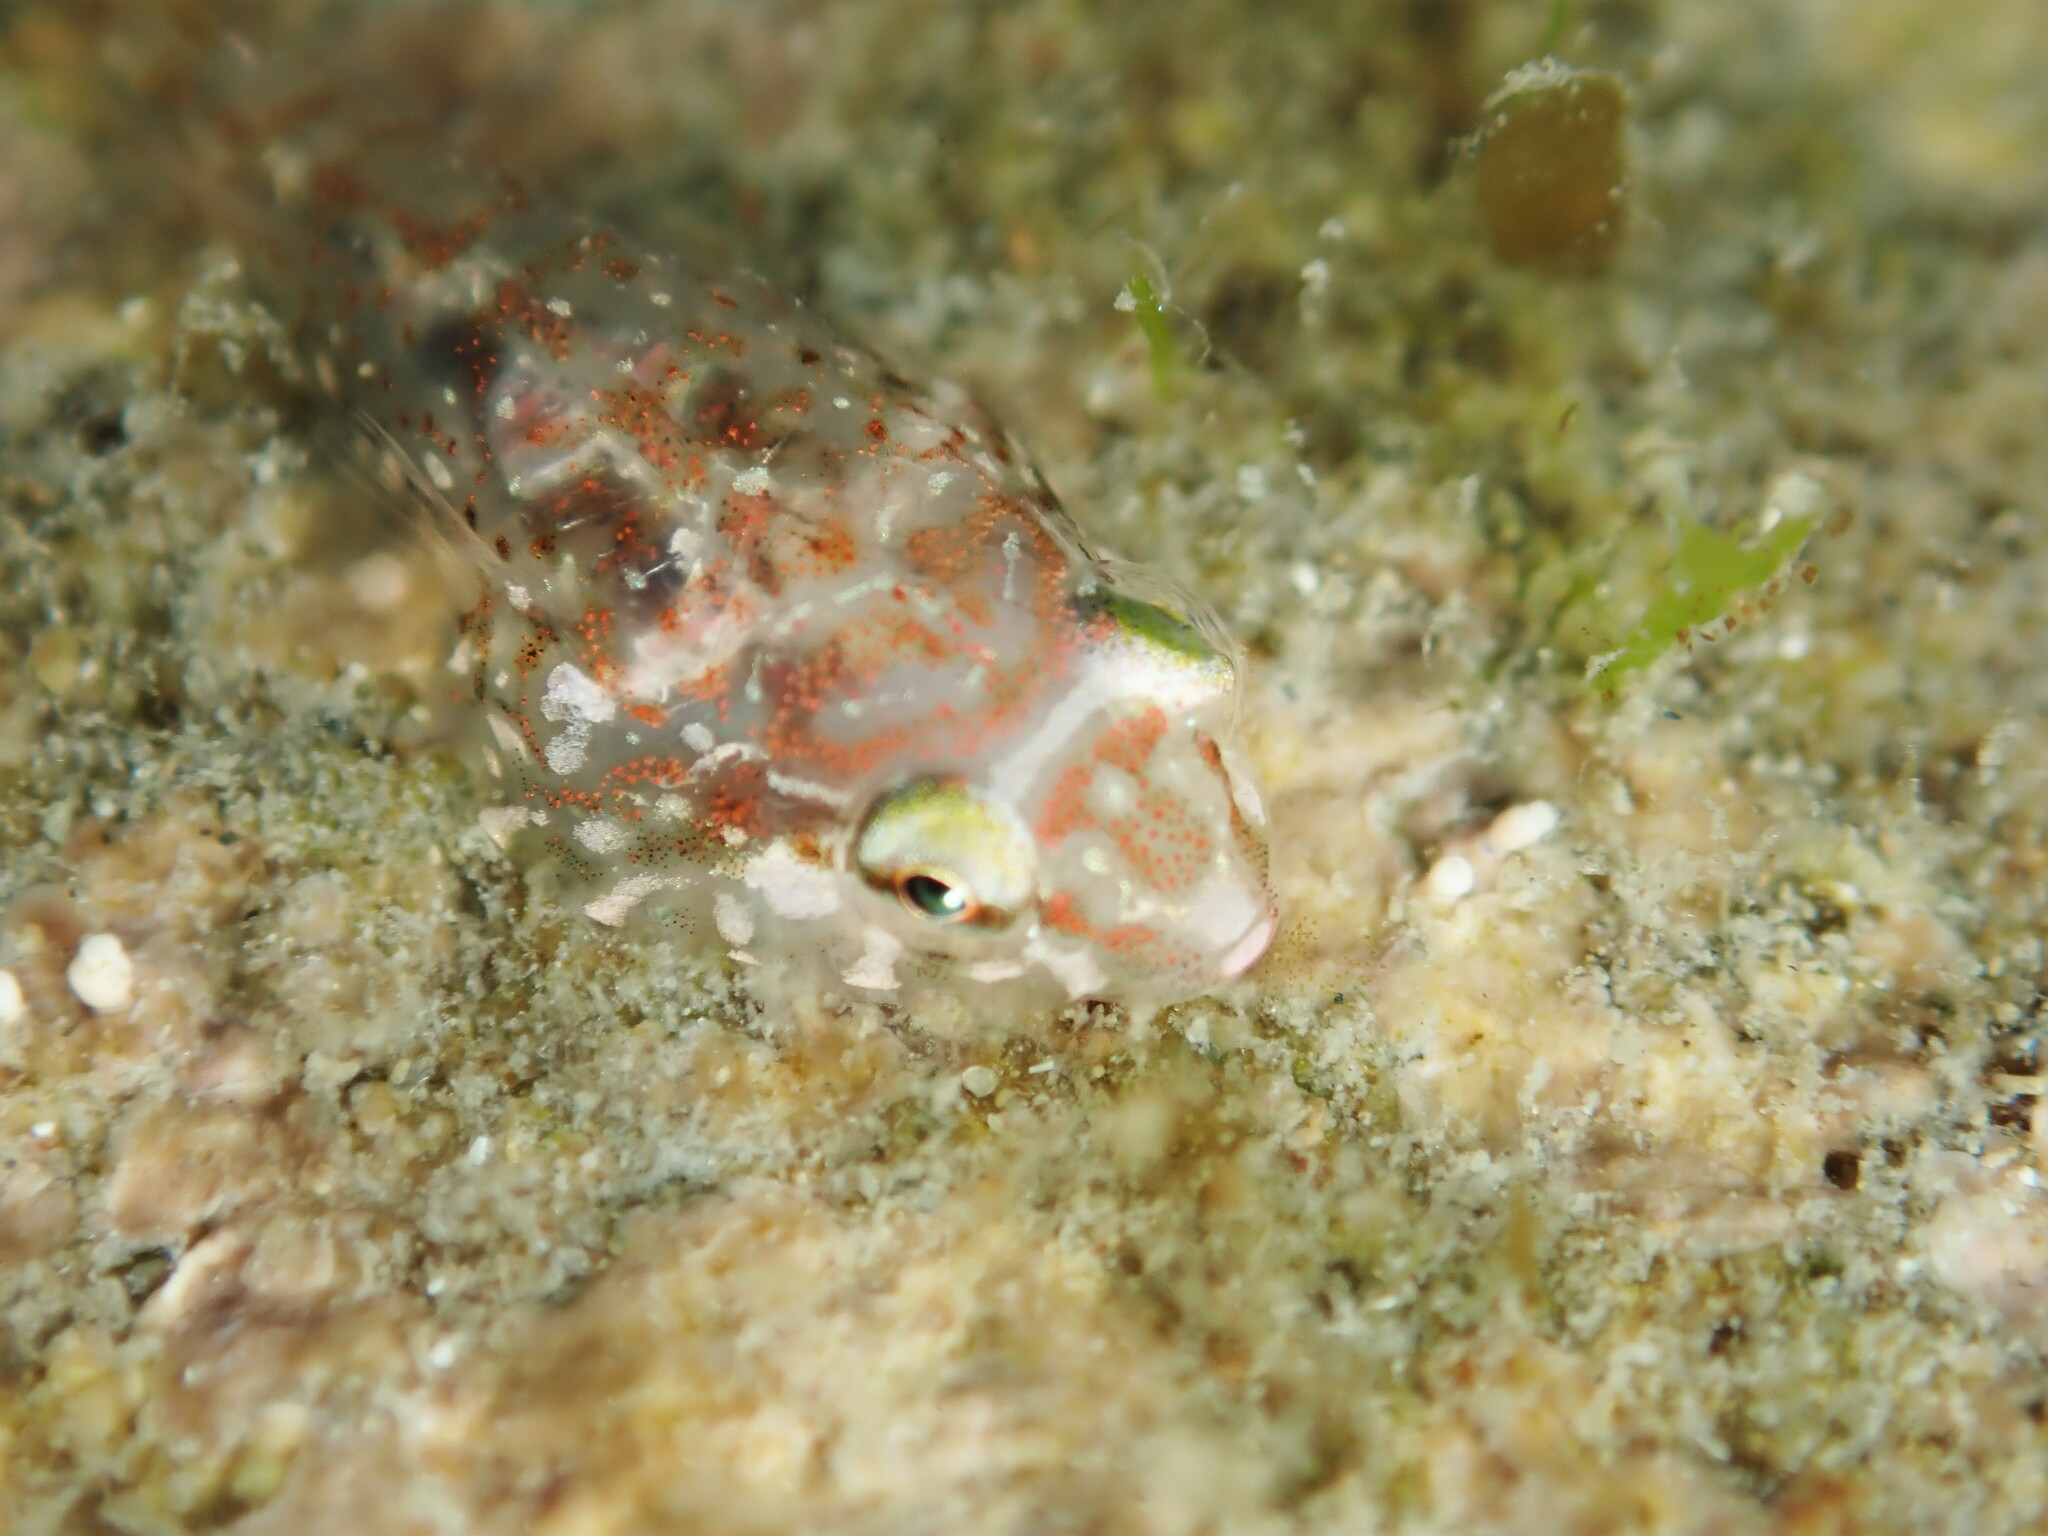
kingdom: Animalia
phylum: Chordata
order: Gobiesociformes
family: Gobiesocidae
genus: Diplocrepis
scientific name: Diplocrepis puniceus
